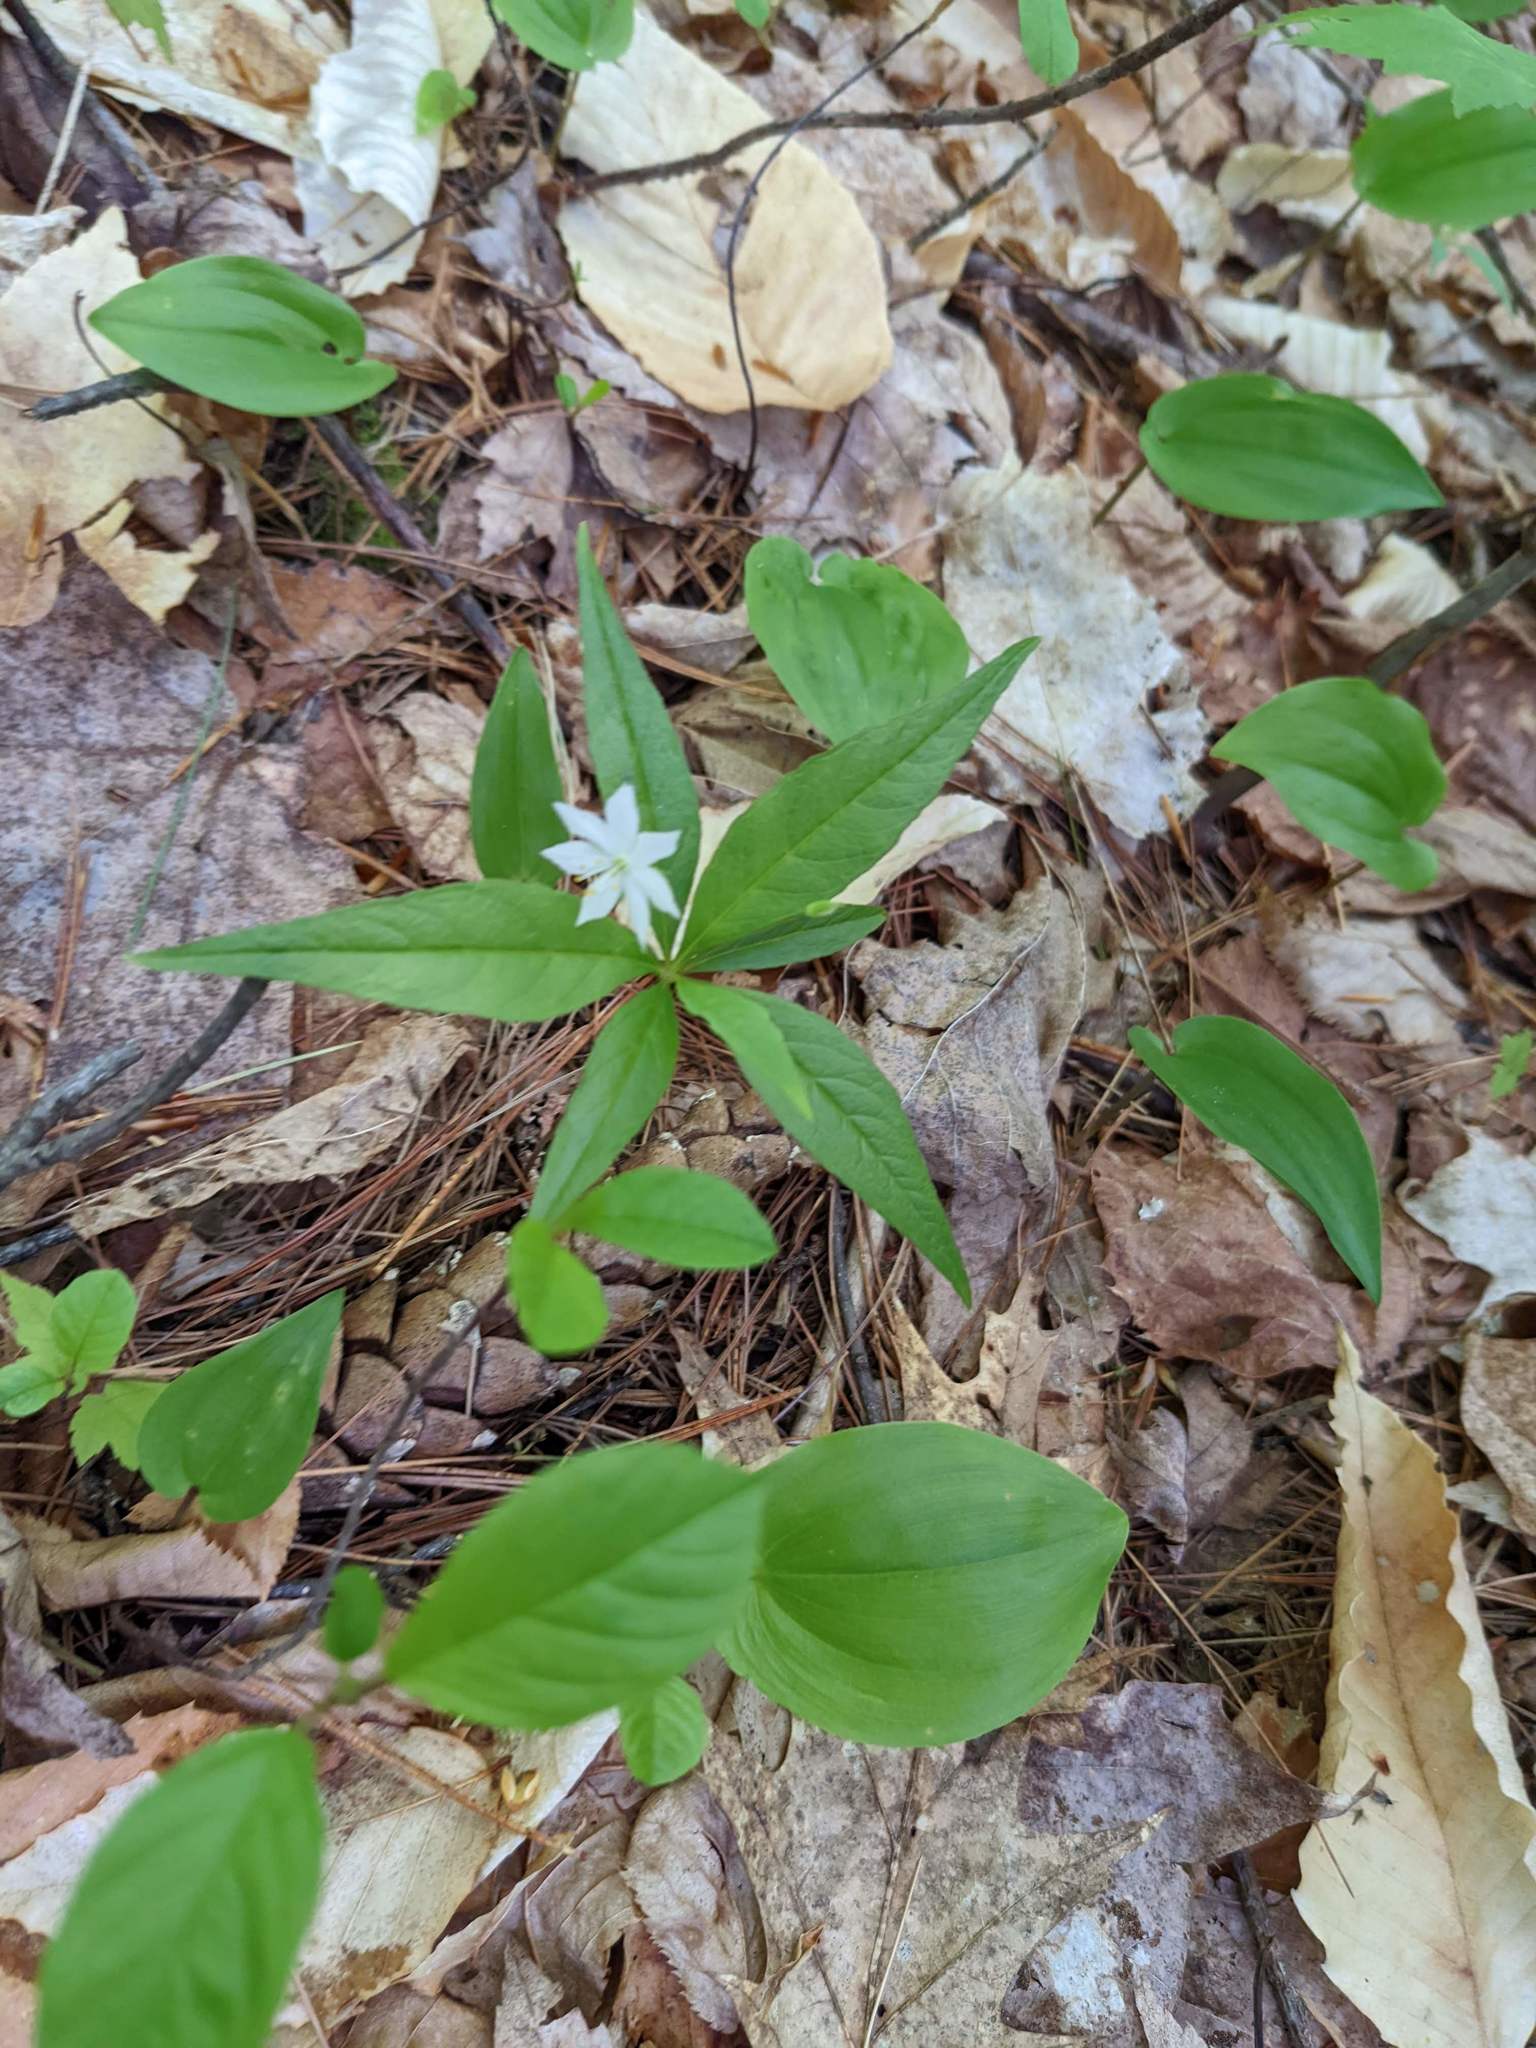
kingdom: Plantae
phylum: Tracheophyta
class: Magnoliopsida
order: Ericales
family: Primulaceae
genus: Lysimachia
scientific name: Lysimachia borealis
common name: American starflower
